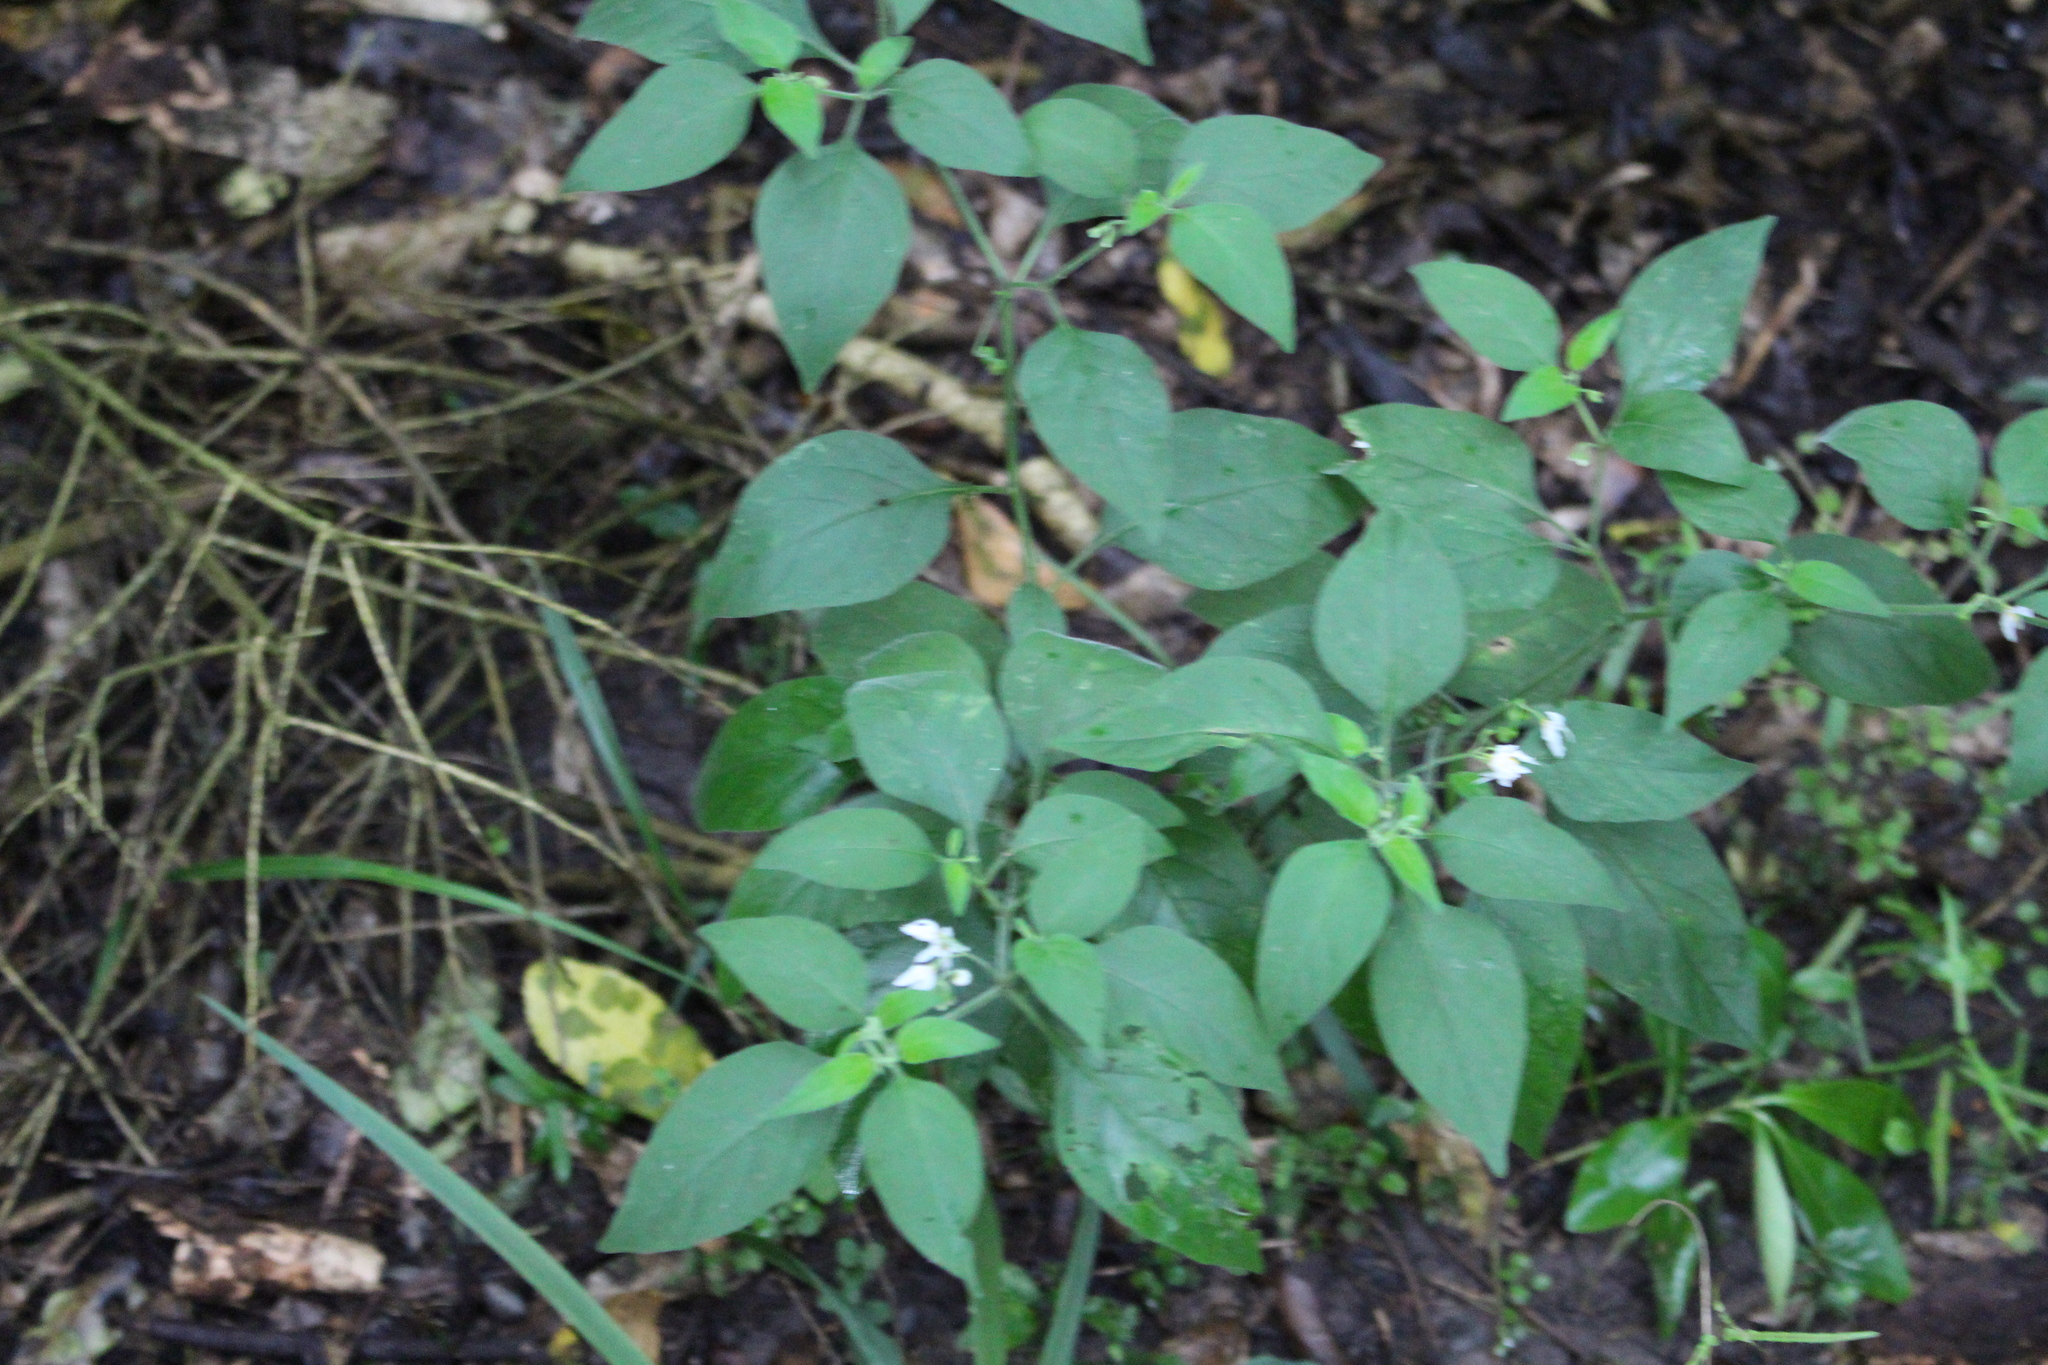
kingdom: Plantae
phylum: Tracheophyta
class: Magnoliopsida
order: Solanales
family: Solanaceae
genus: Solanum
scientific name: Solanum chenopodioides
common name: Tall nightshade
